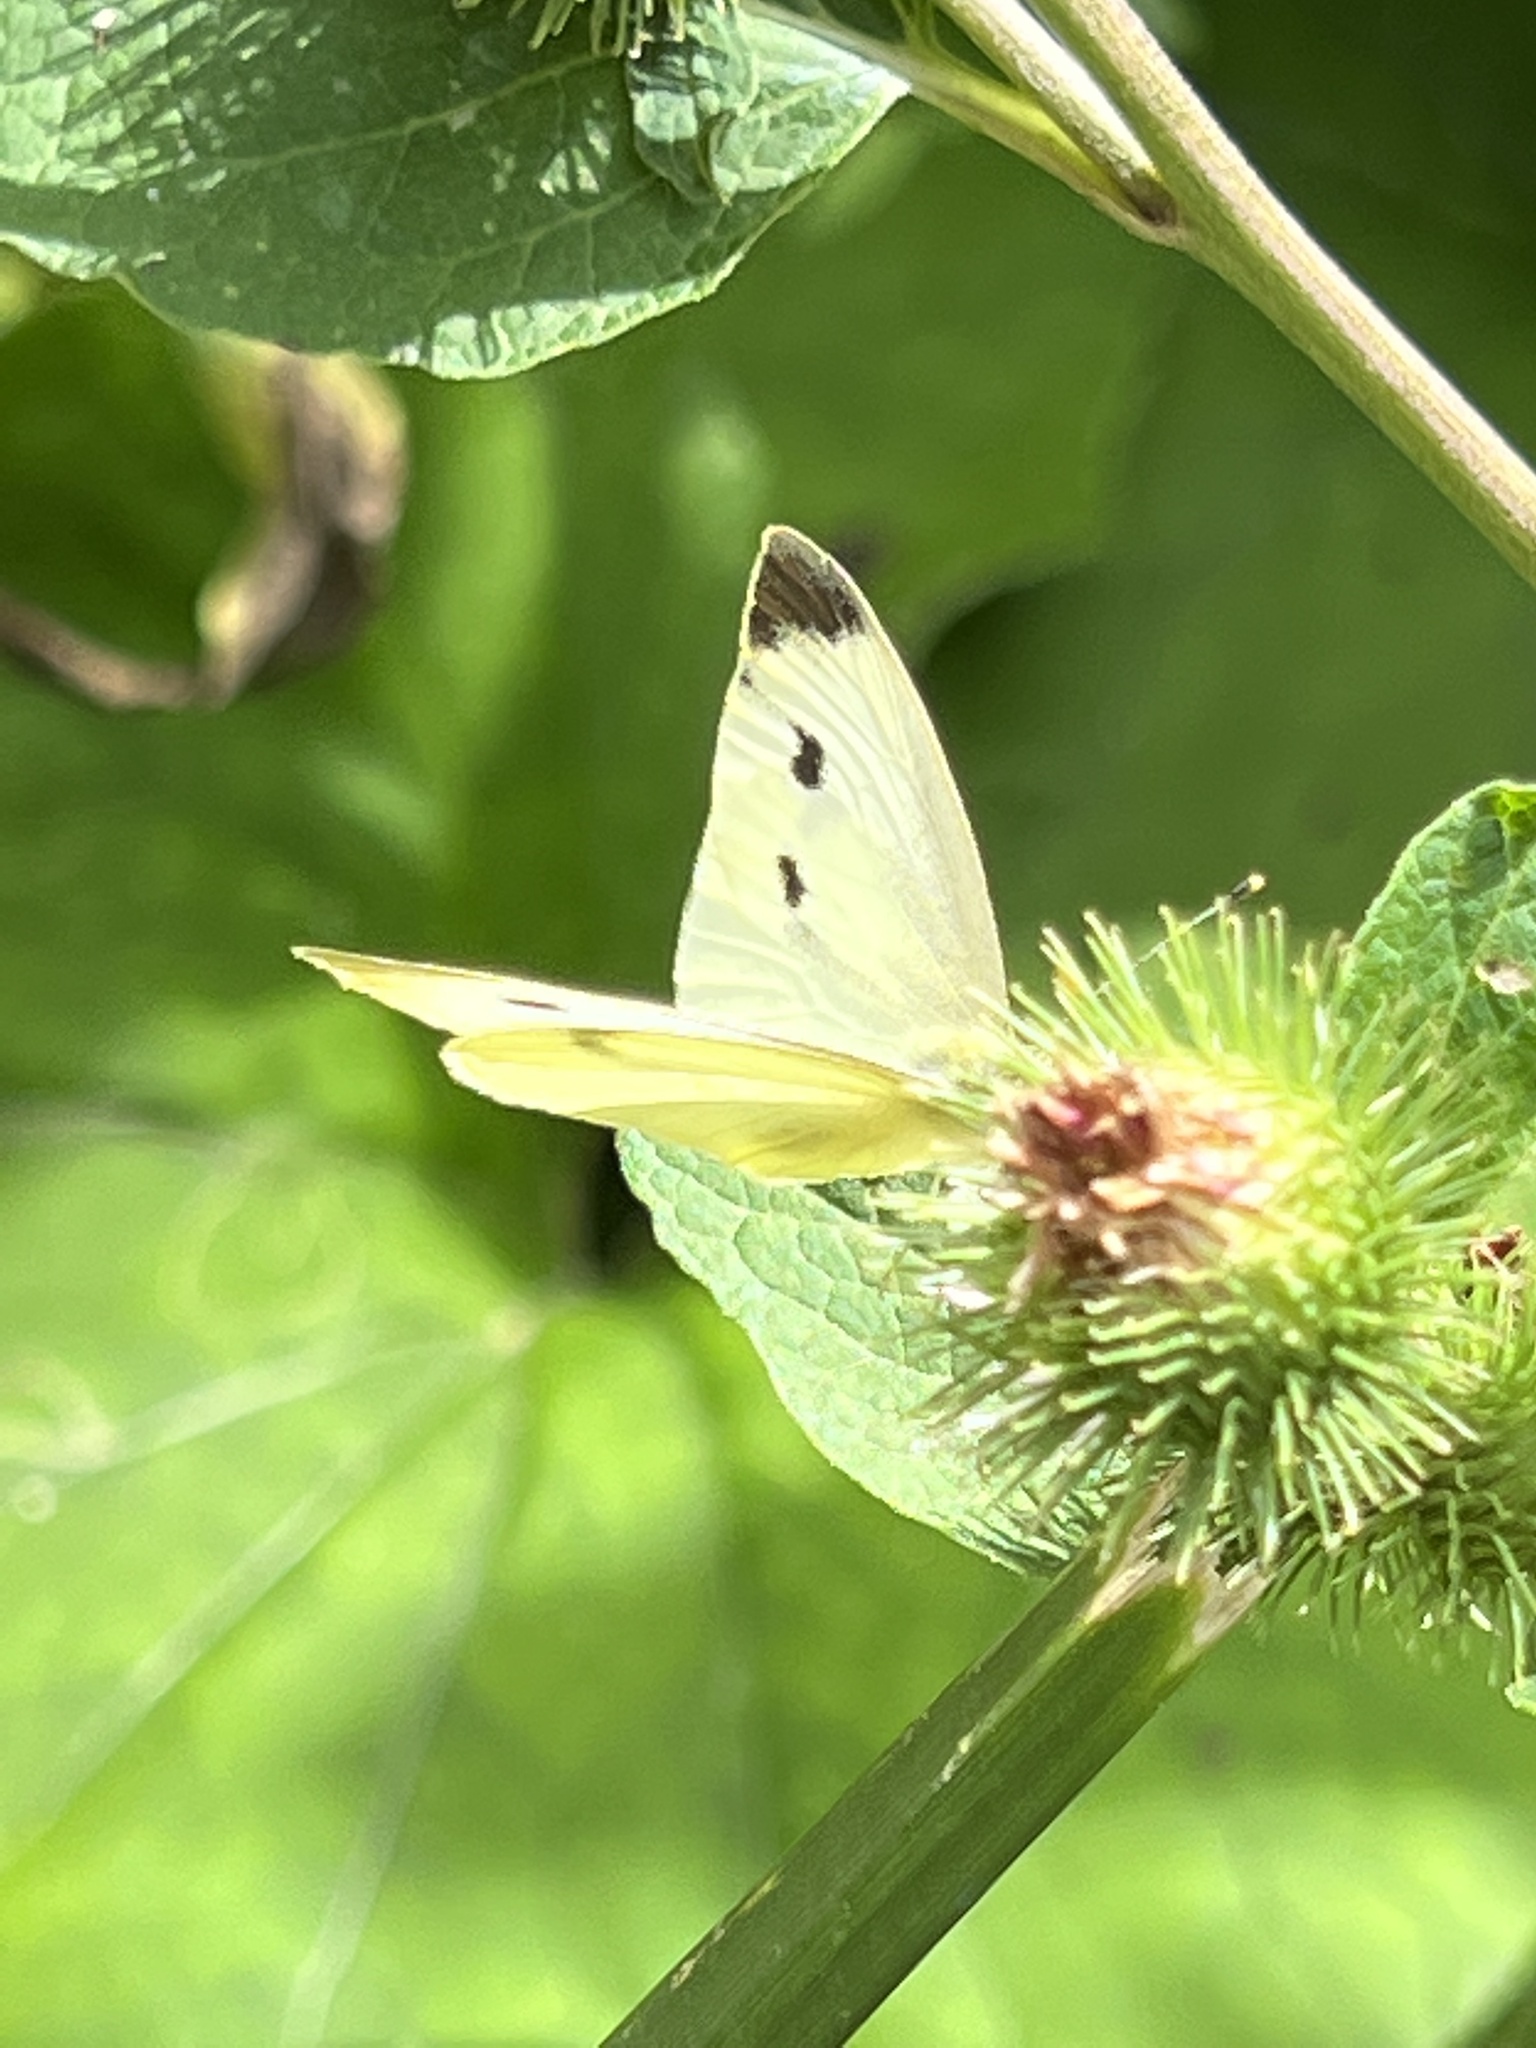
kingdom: Animalia
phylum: Arthropoda
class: Insecta
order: Lepidoptera
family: Pieridae
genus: Pieris
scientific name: Pieris rapae
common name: Small white
